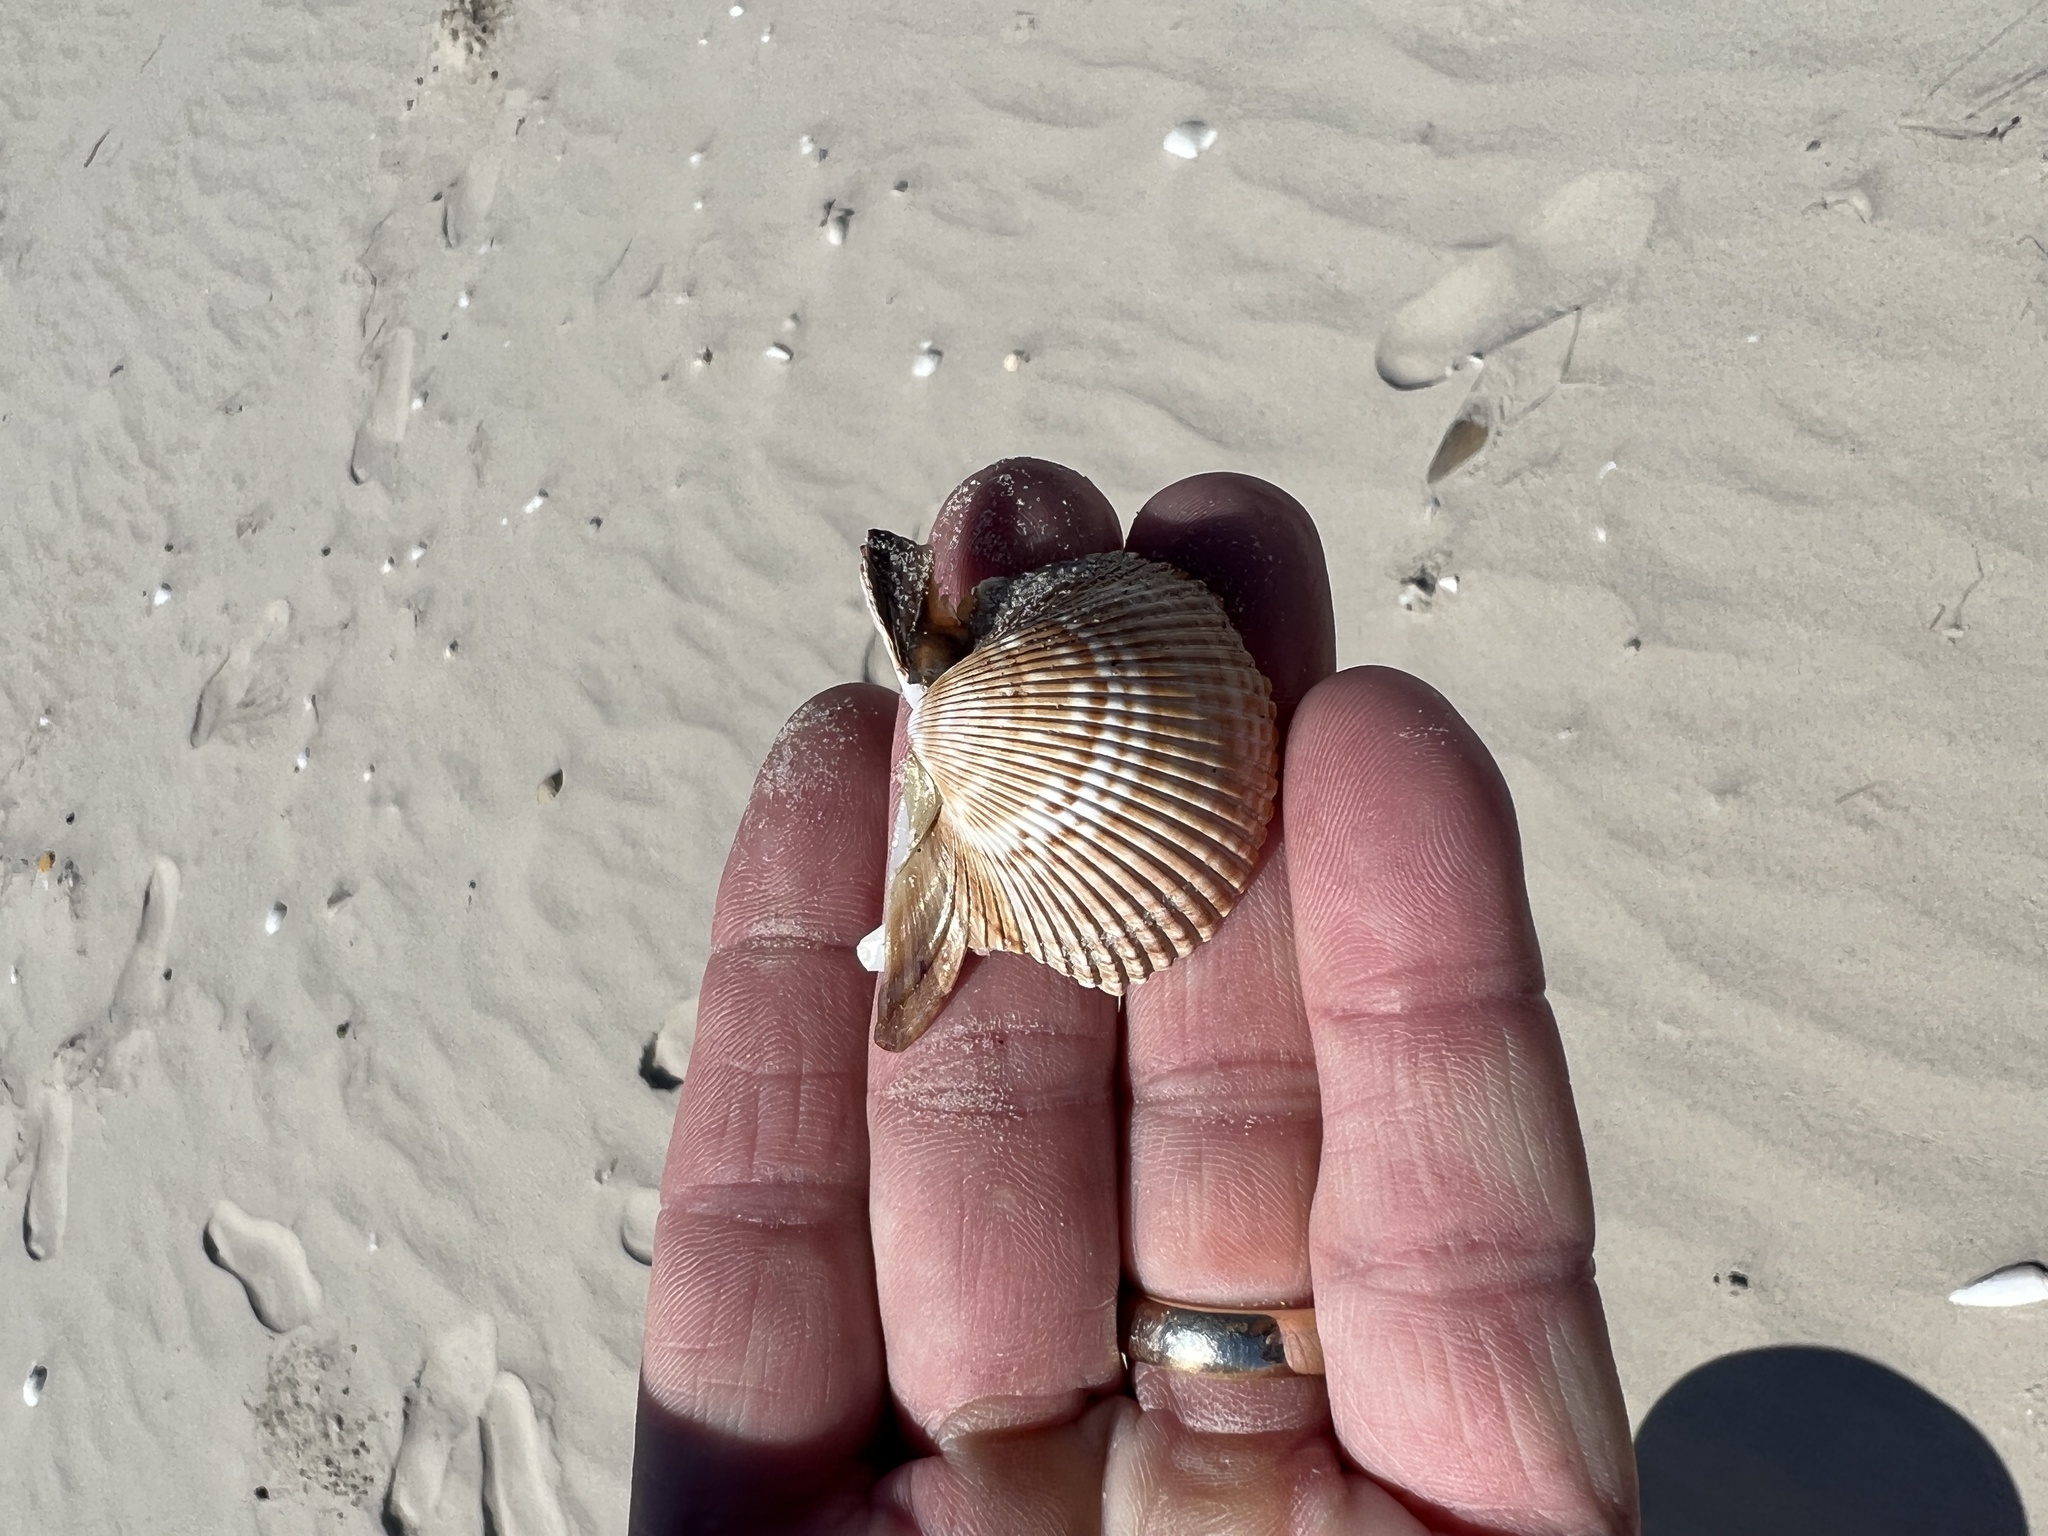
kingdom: Animalia
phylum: Mollusca
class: Bivalvia
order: Cardiida
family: Cardiidae
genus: Dinocardium
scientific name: Dinocardium robustum
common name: Atlantic giant cockle
